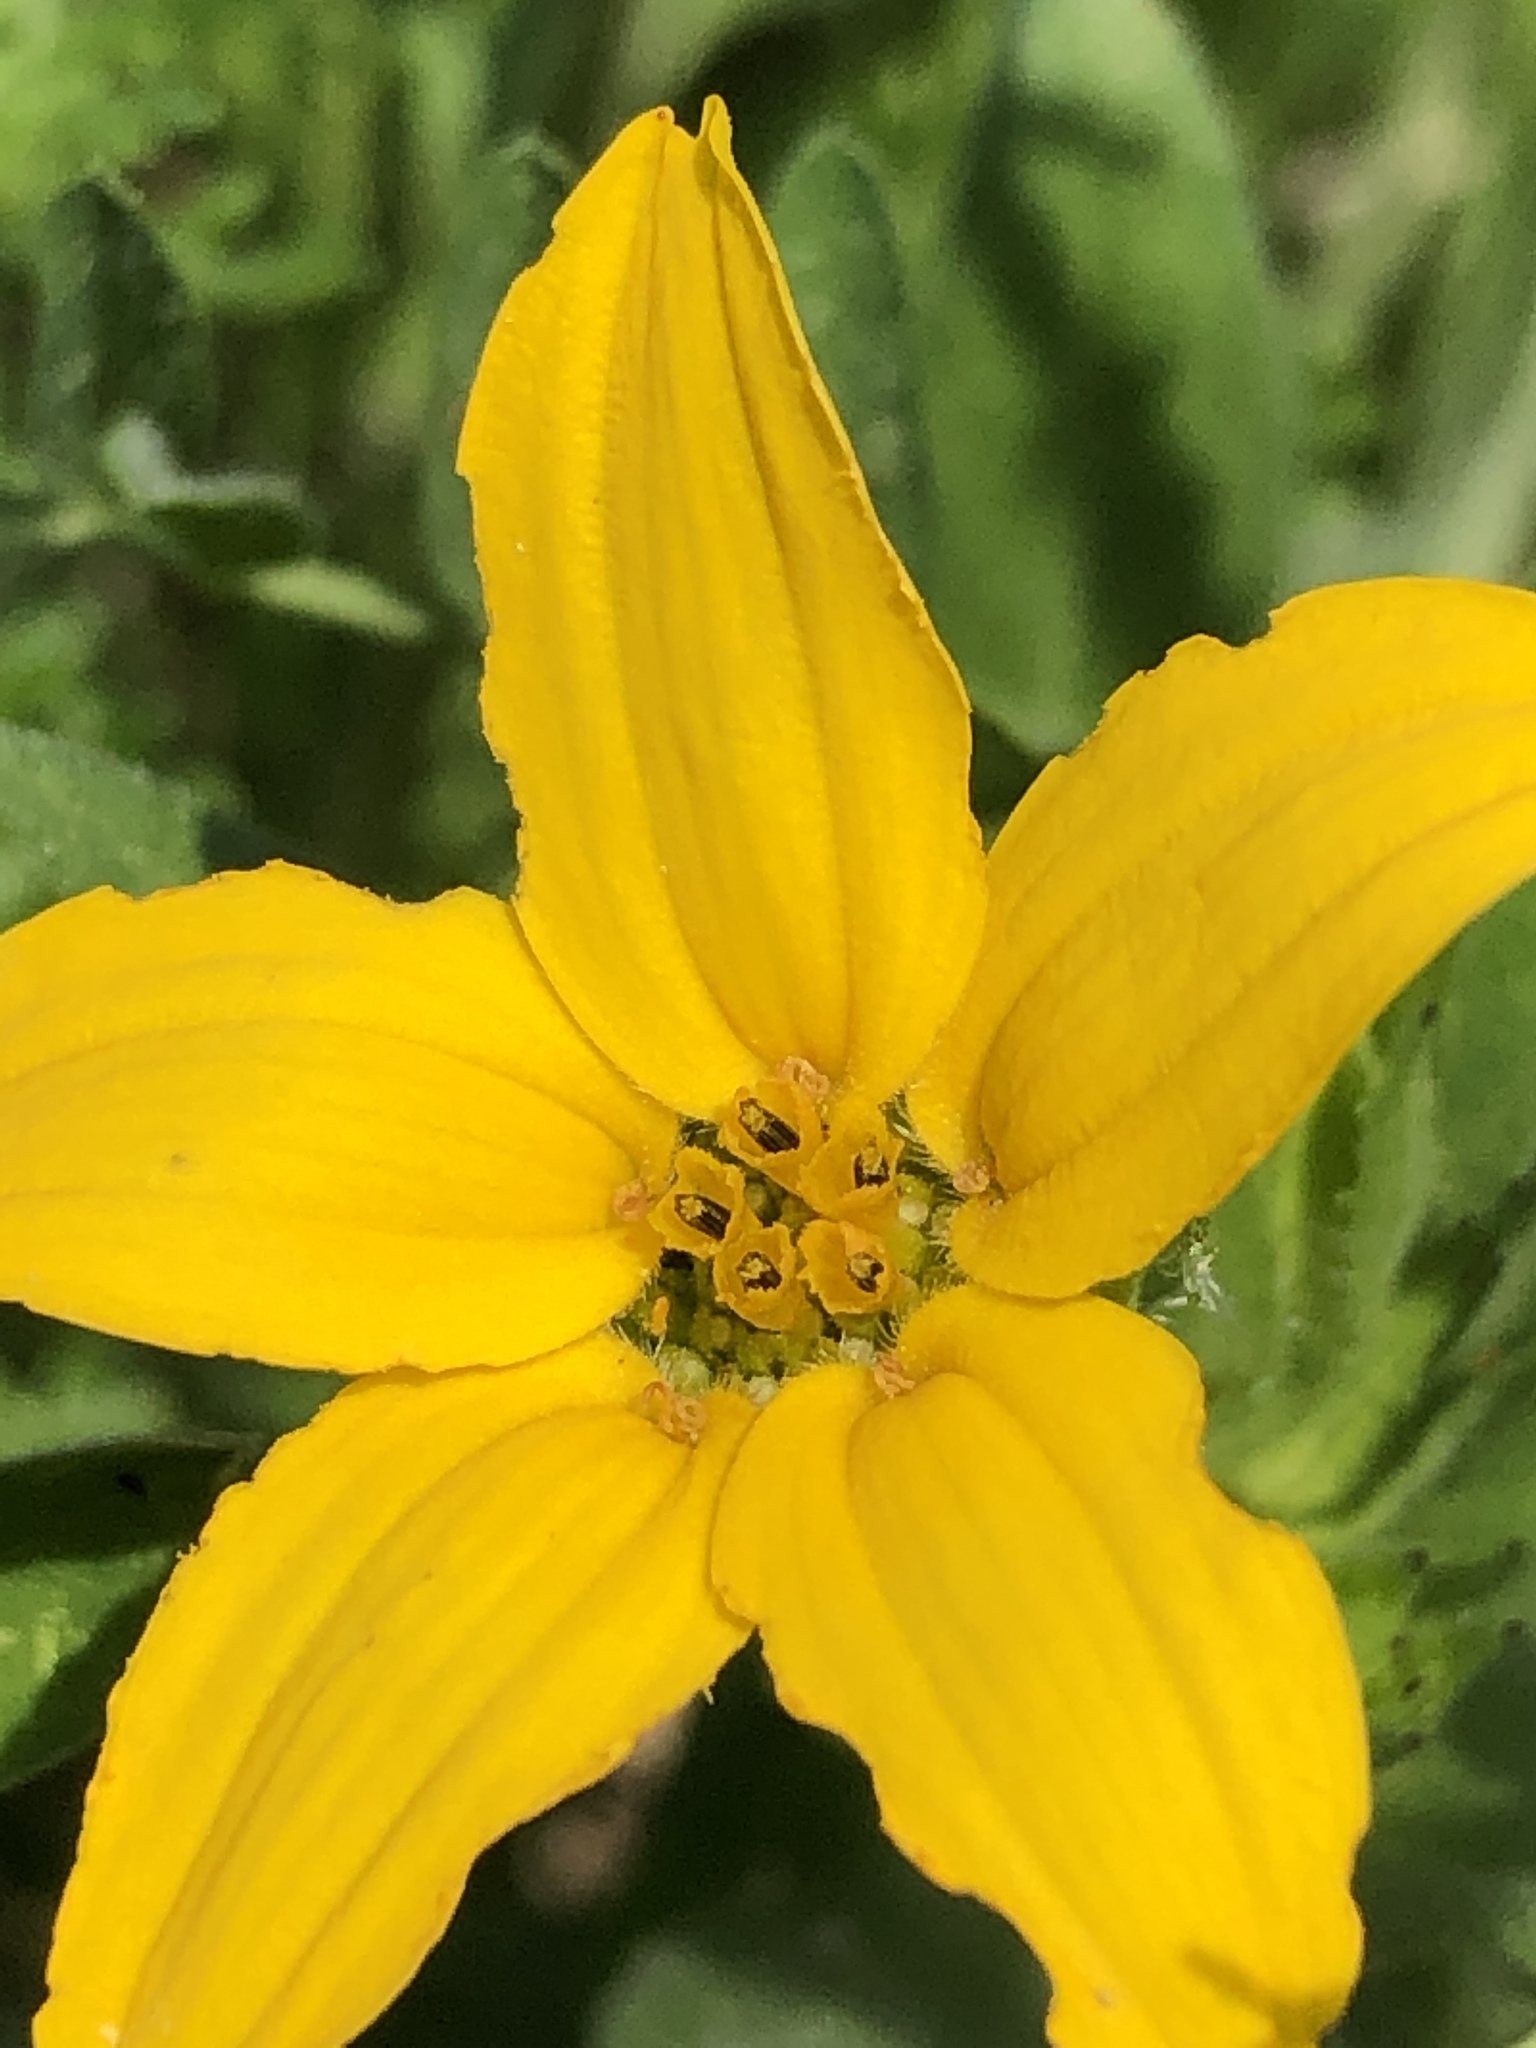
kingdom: Plantae
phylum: Tracheophyta
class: Magnoliopsida
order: Asterales
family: Asteraceae
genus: Lindheimera
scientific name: Lindheimera texana
